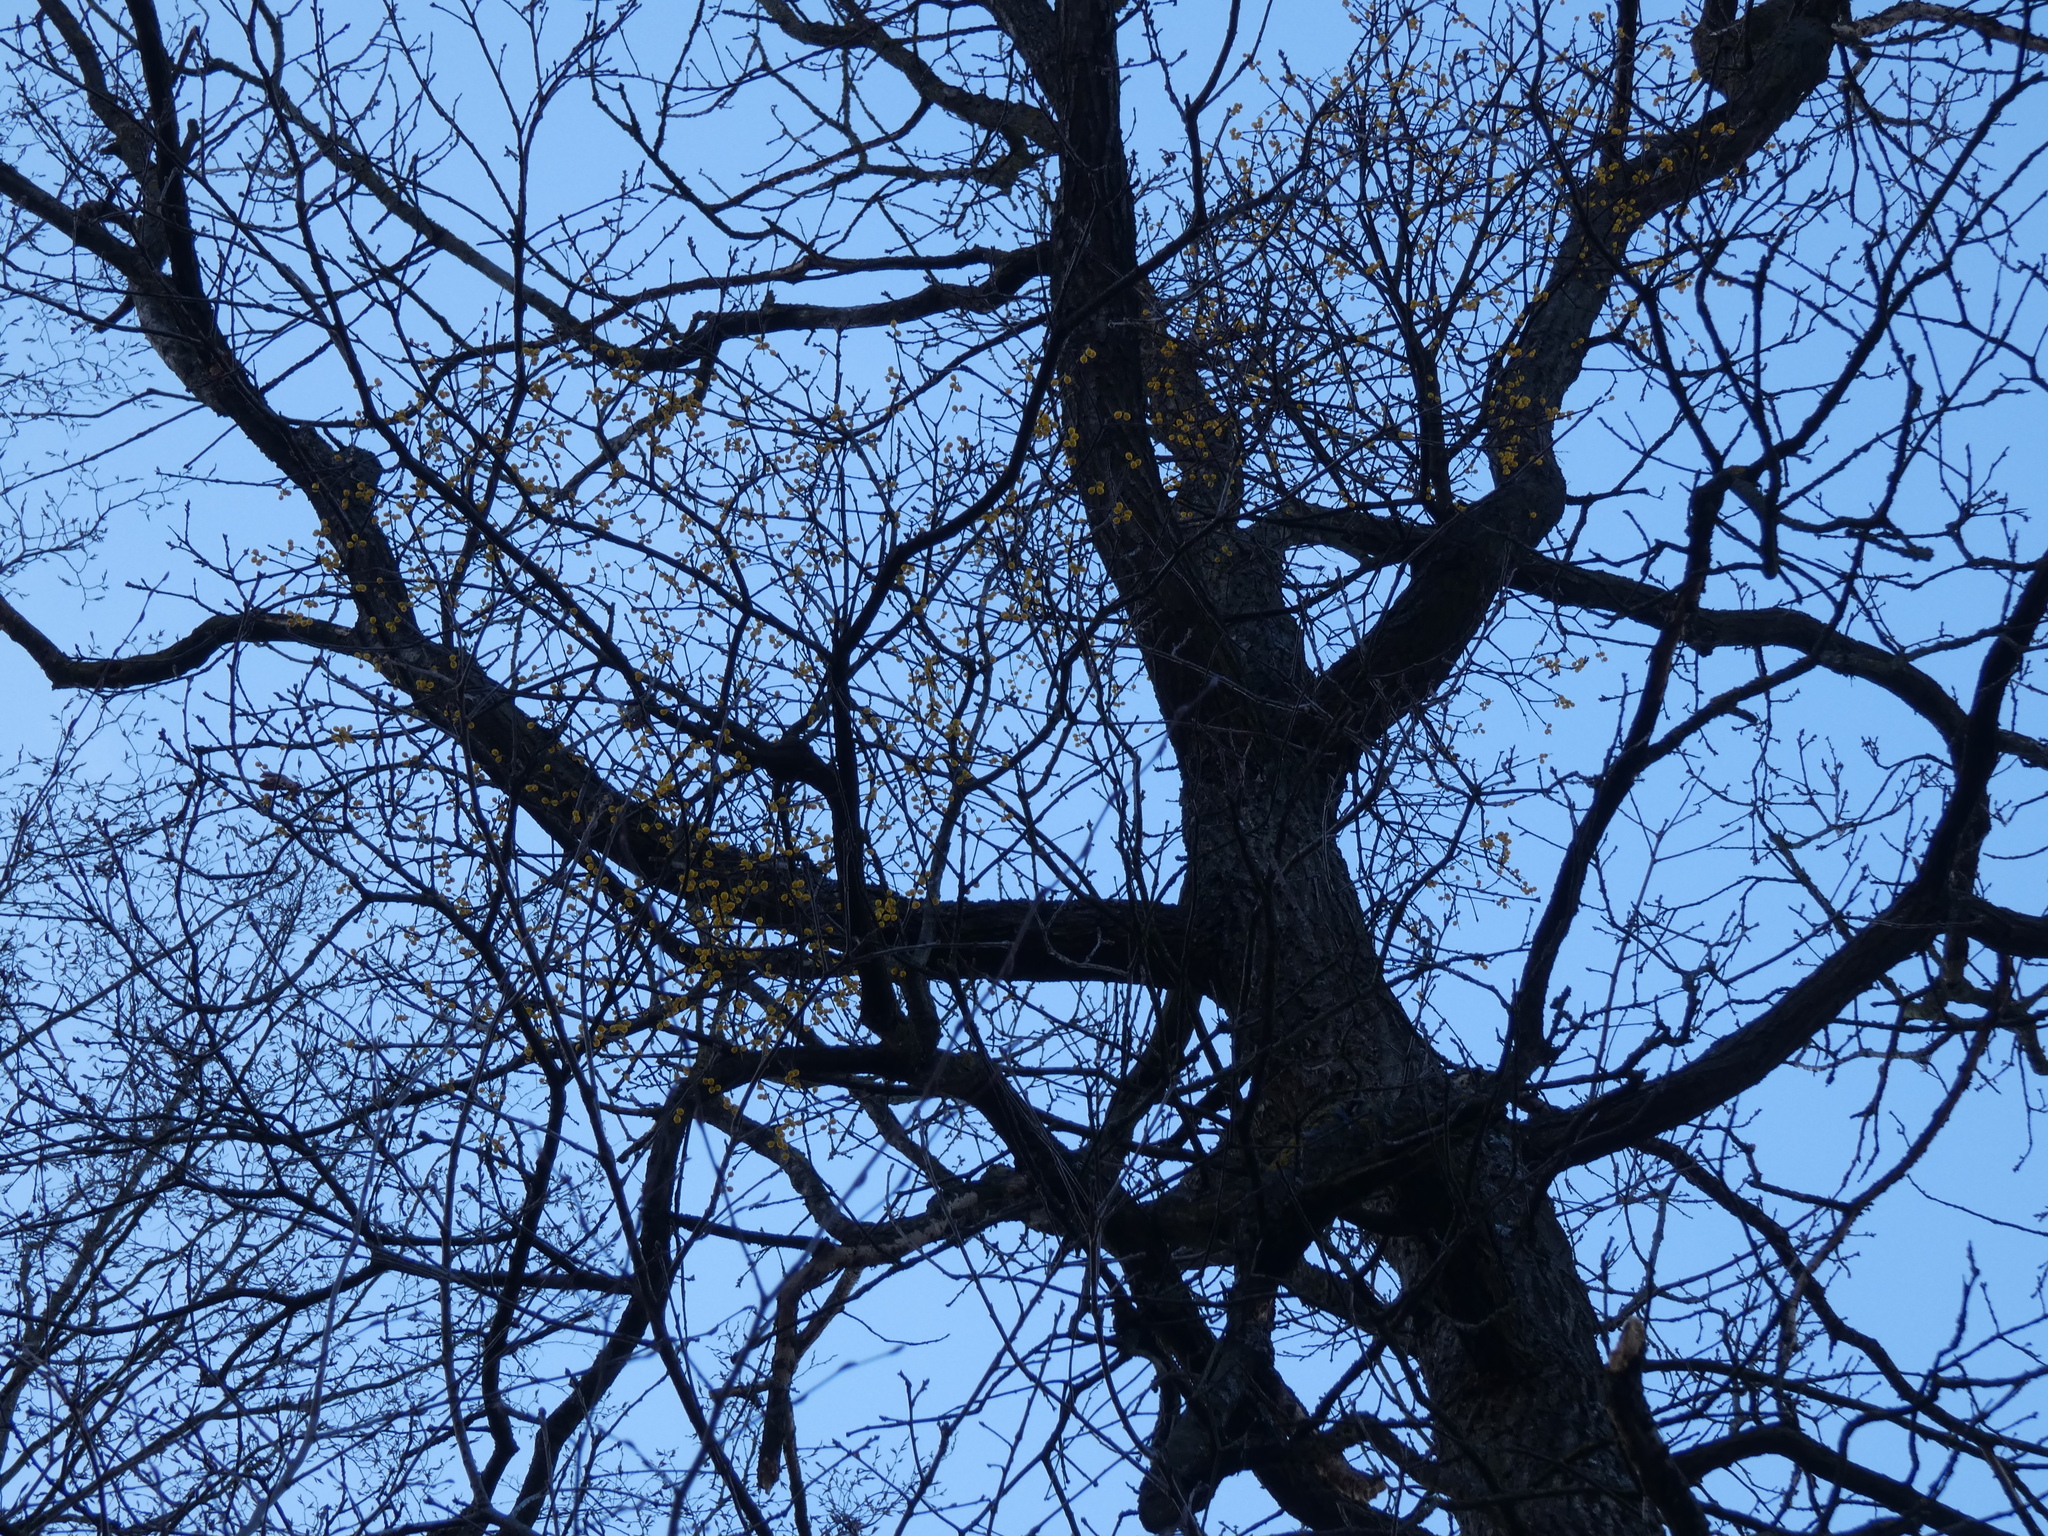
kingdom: Plantae
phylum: Tracheophyta
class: Magnoliopsida
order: Santalales
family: Loranthaceae
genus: Loranthus
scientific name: Loranthus europaeus
